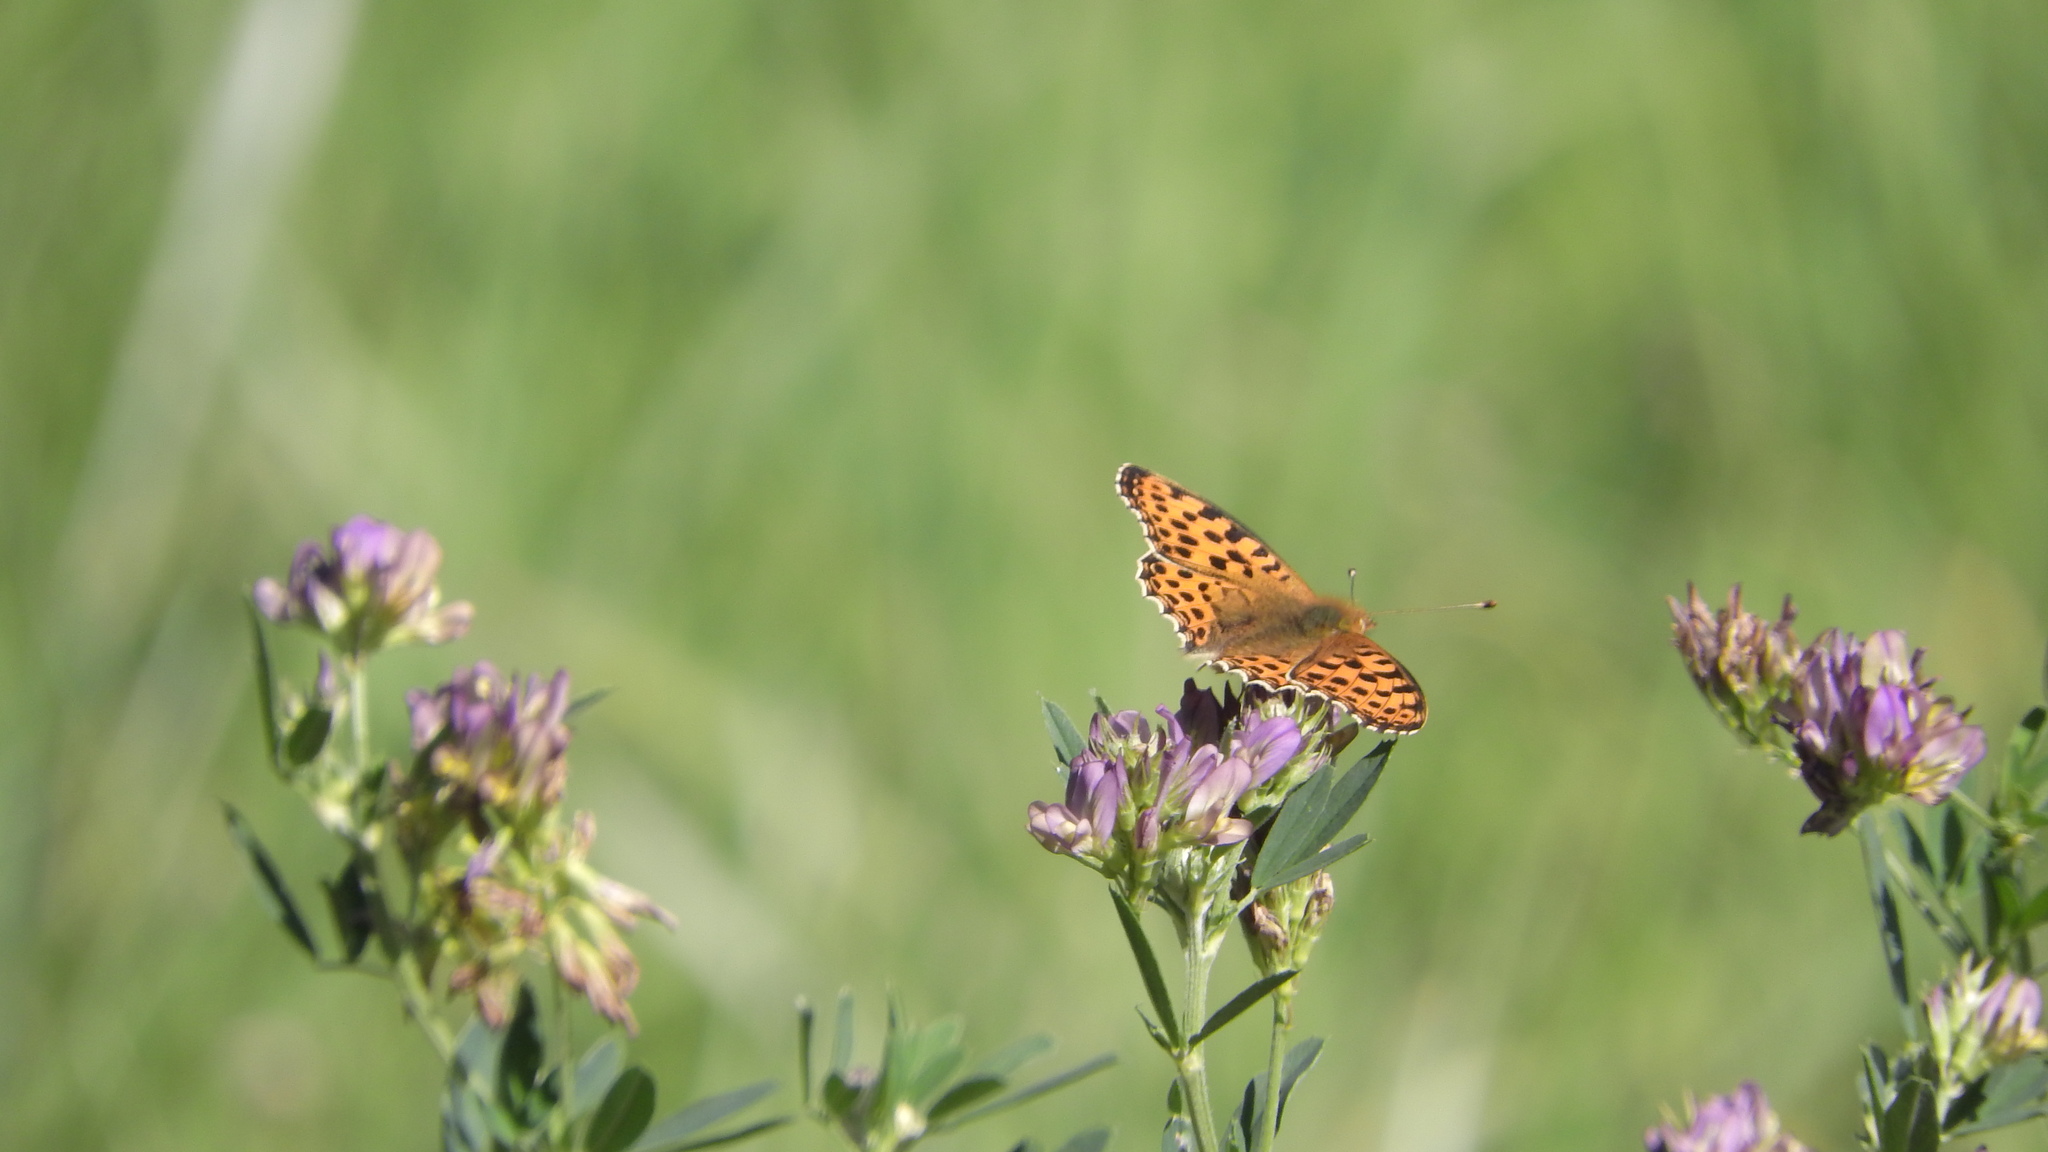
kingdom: Animalia
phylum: Arthropoda
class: Insecta
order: Lepidoptera
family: Nymphalidae
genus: Issoria
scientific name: Issoria lathonia
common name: Queen of spain fritillary
